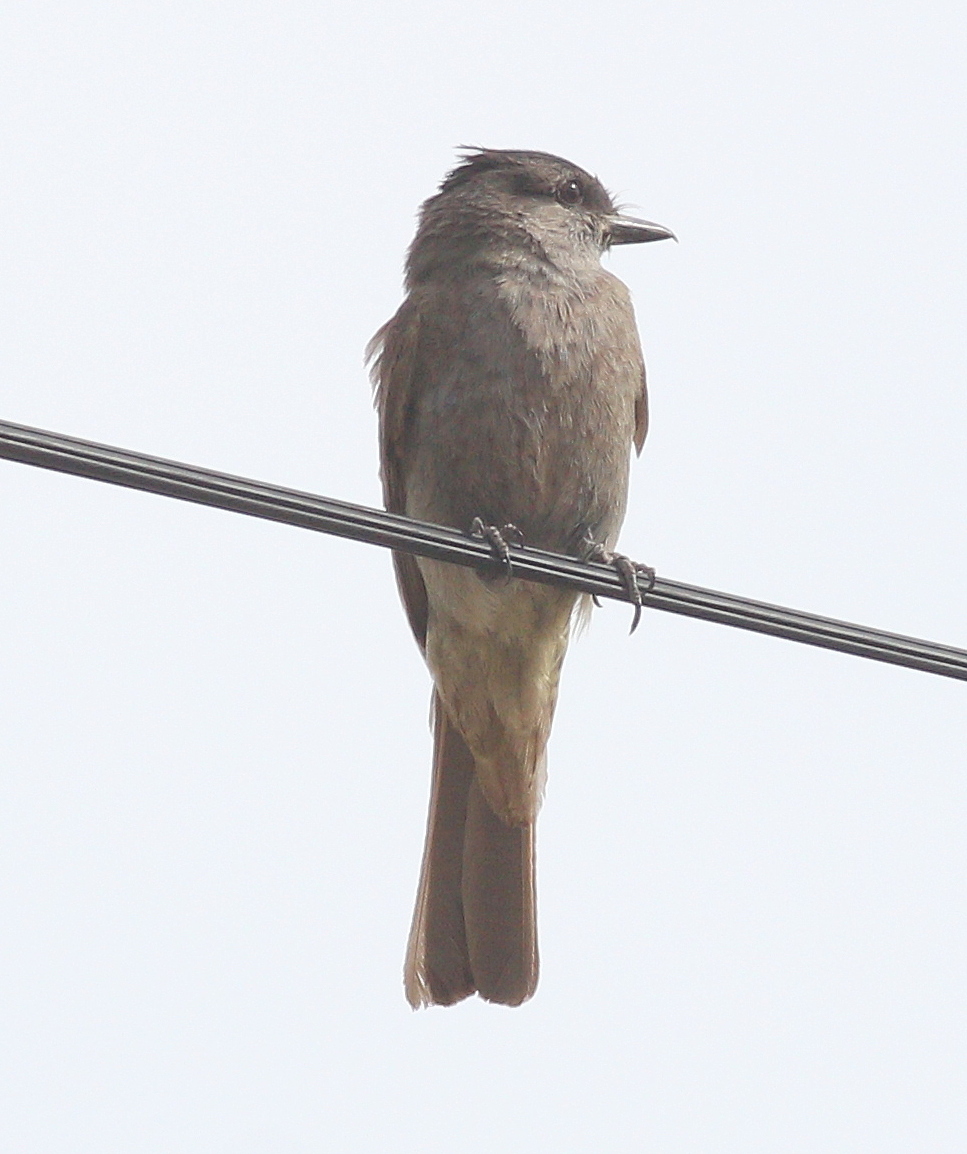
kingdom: Animalia
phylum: Chordata
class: Aves
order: Passeriformes
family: Tyrannidae
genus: Empidonomus
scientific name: Empidonomus aurantioatrocristatus
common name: Crowned slaty flycatcher
